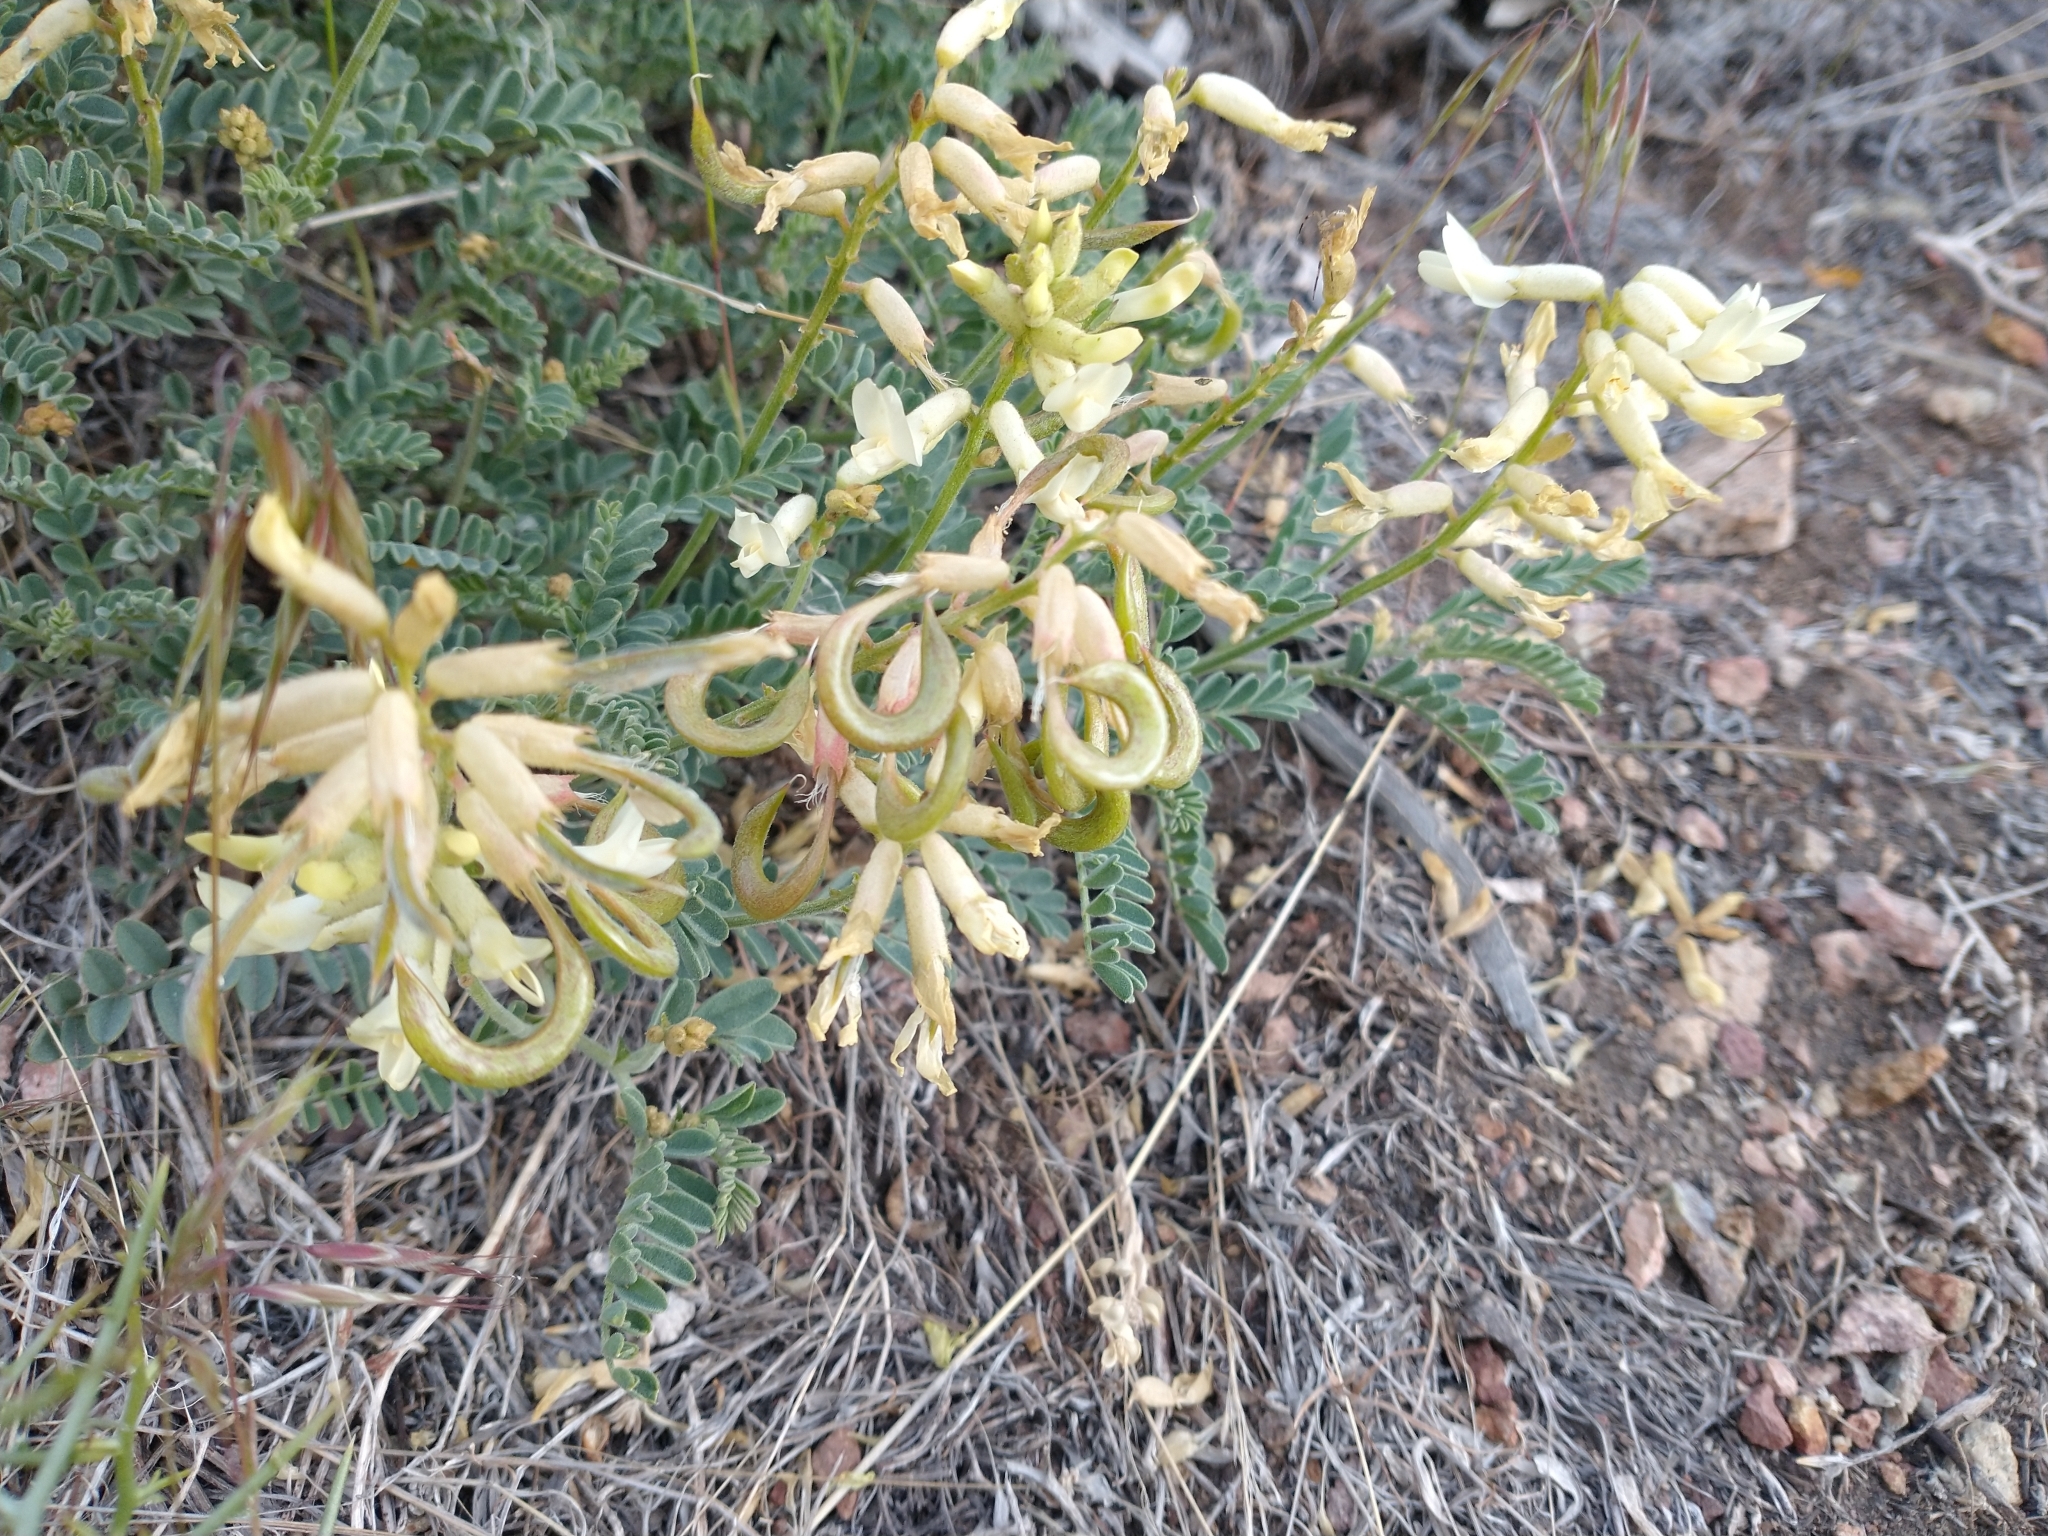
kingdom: Plantae
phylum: Tracheophyta
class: Magnoliopsida
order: Fabales
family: Fabaceae
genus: Astragalus
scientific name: Astragalus curvicarpus
